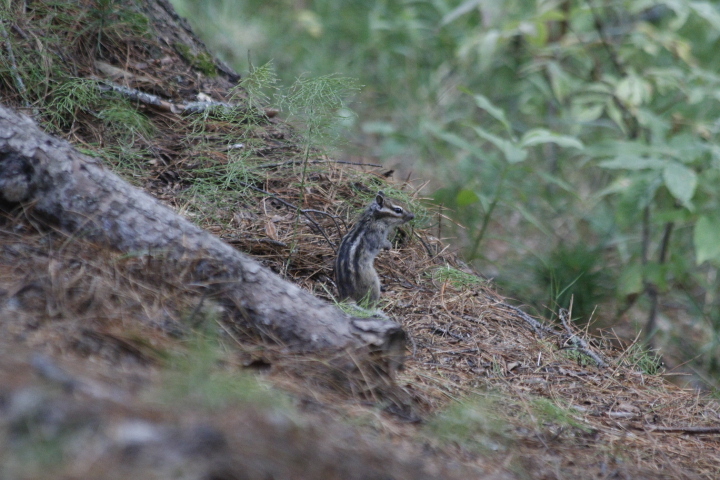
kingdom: Animalia
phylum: Chordata
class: Mammalia
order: Rodentia
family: Sciuridae
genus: Tamias
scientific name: Tamias sibiricus
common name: Siberian chipmunk
